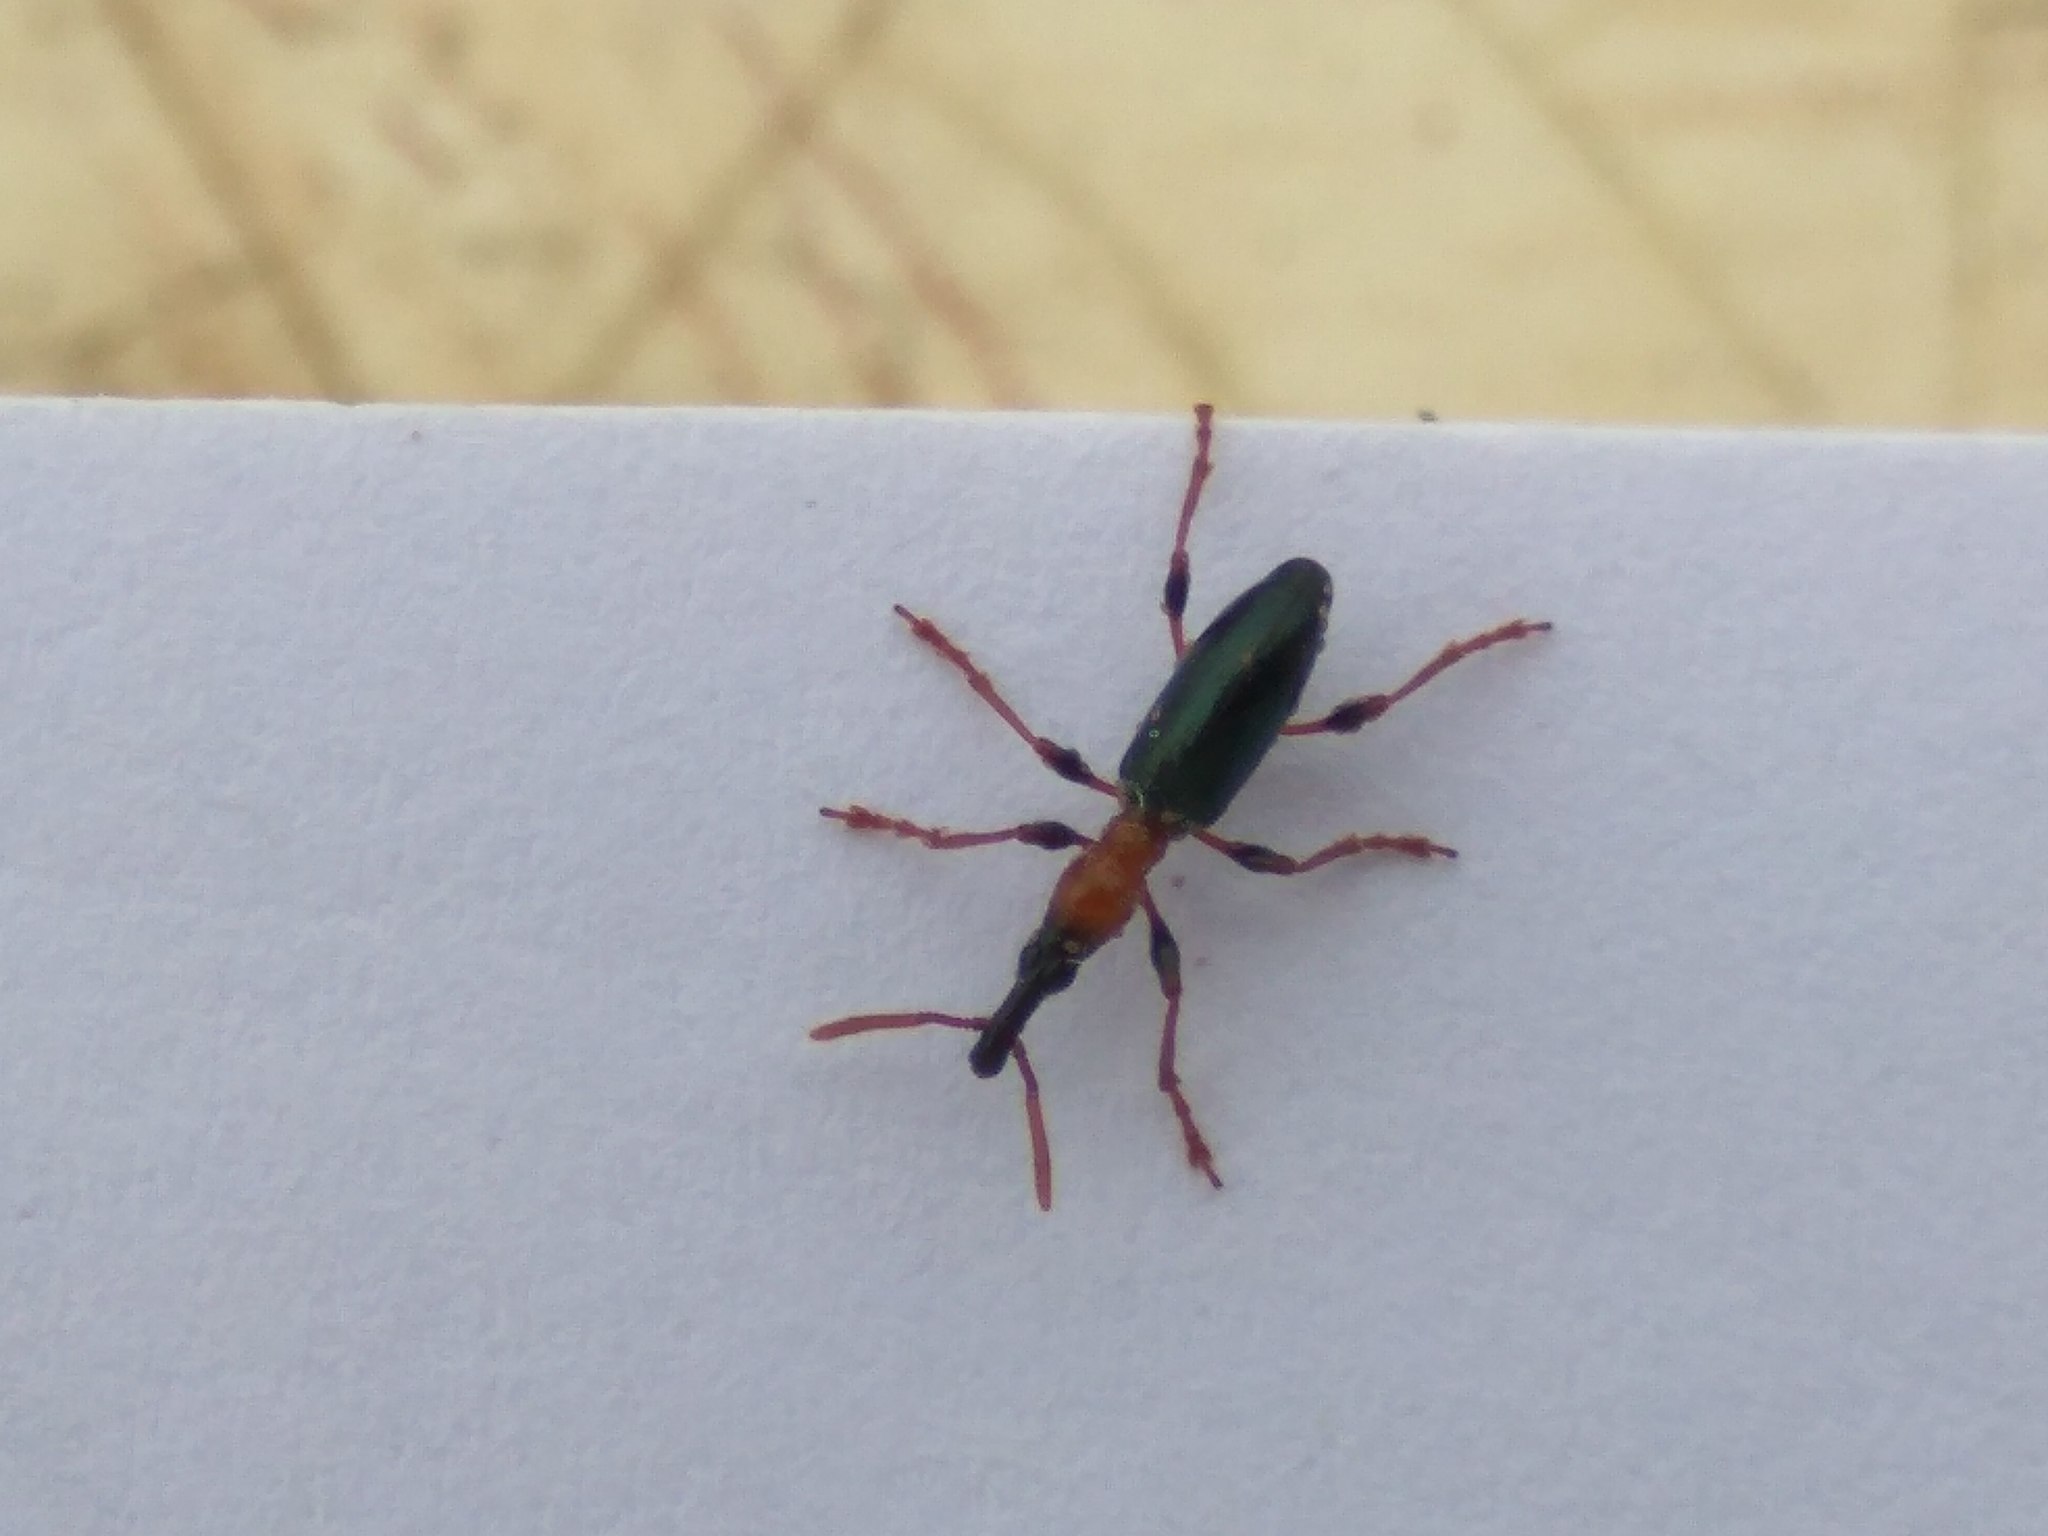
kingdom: Animalia
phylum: Arthropoda
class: Insecta
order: Coleoptera
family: Brentidae
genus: Cylas
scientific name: Cylas formicarius
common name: Sweetpotato weevil
